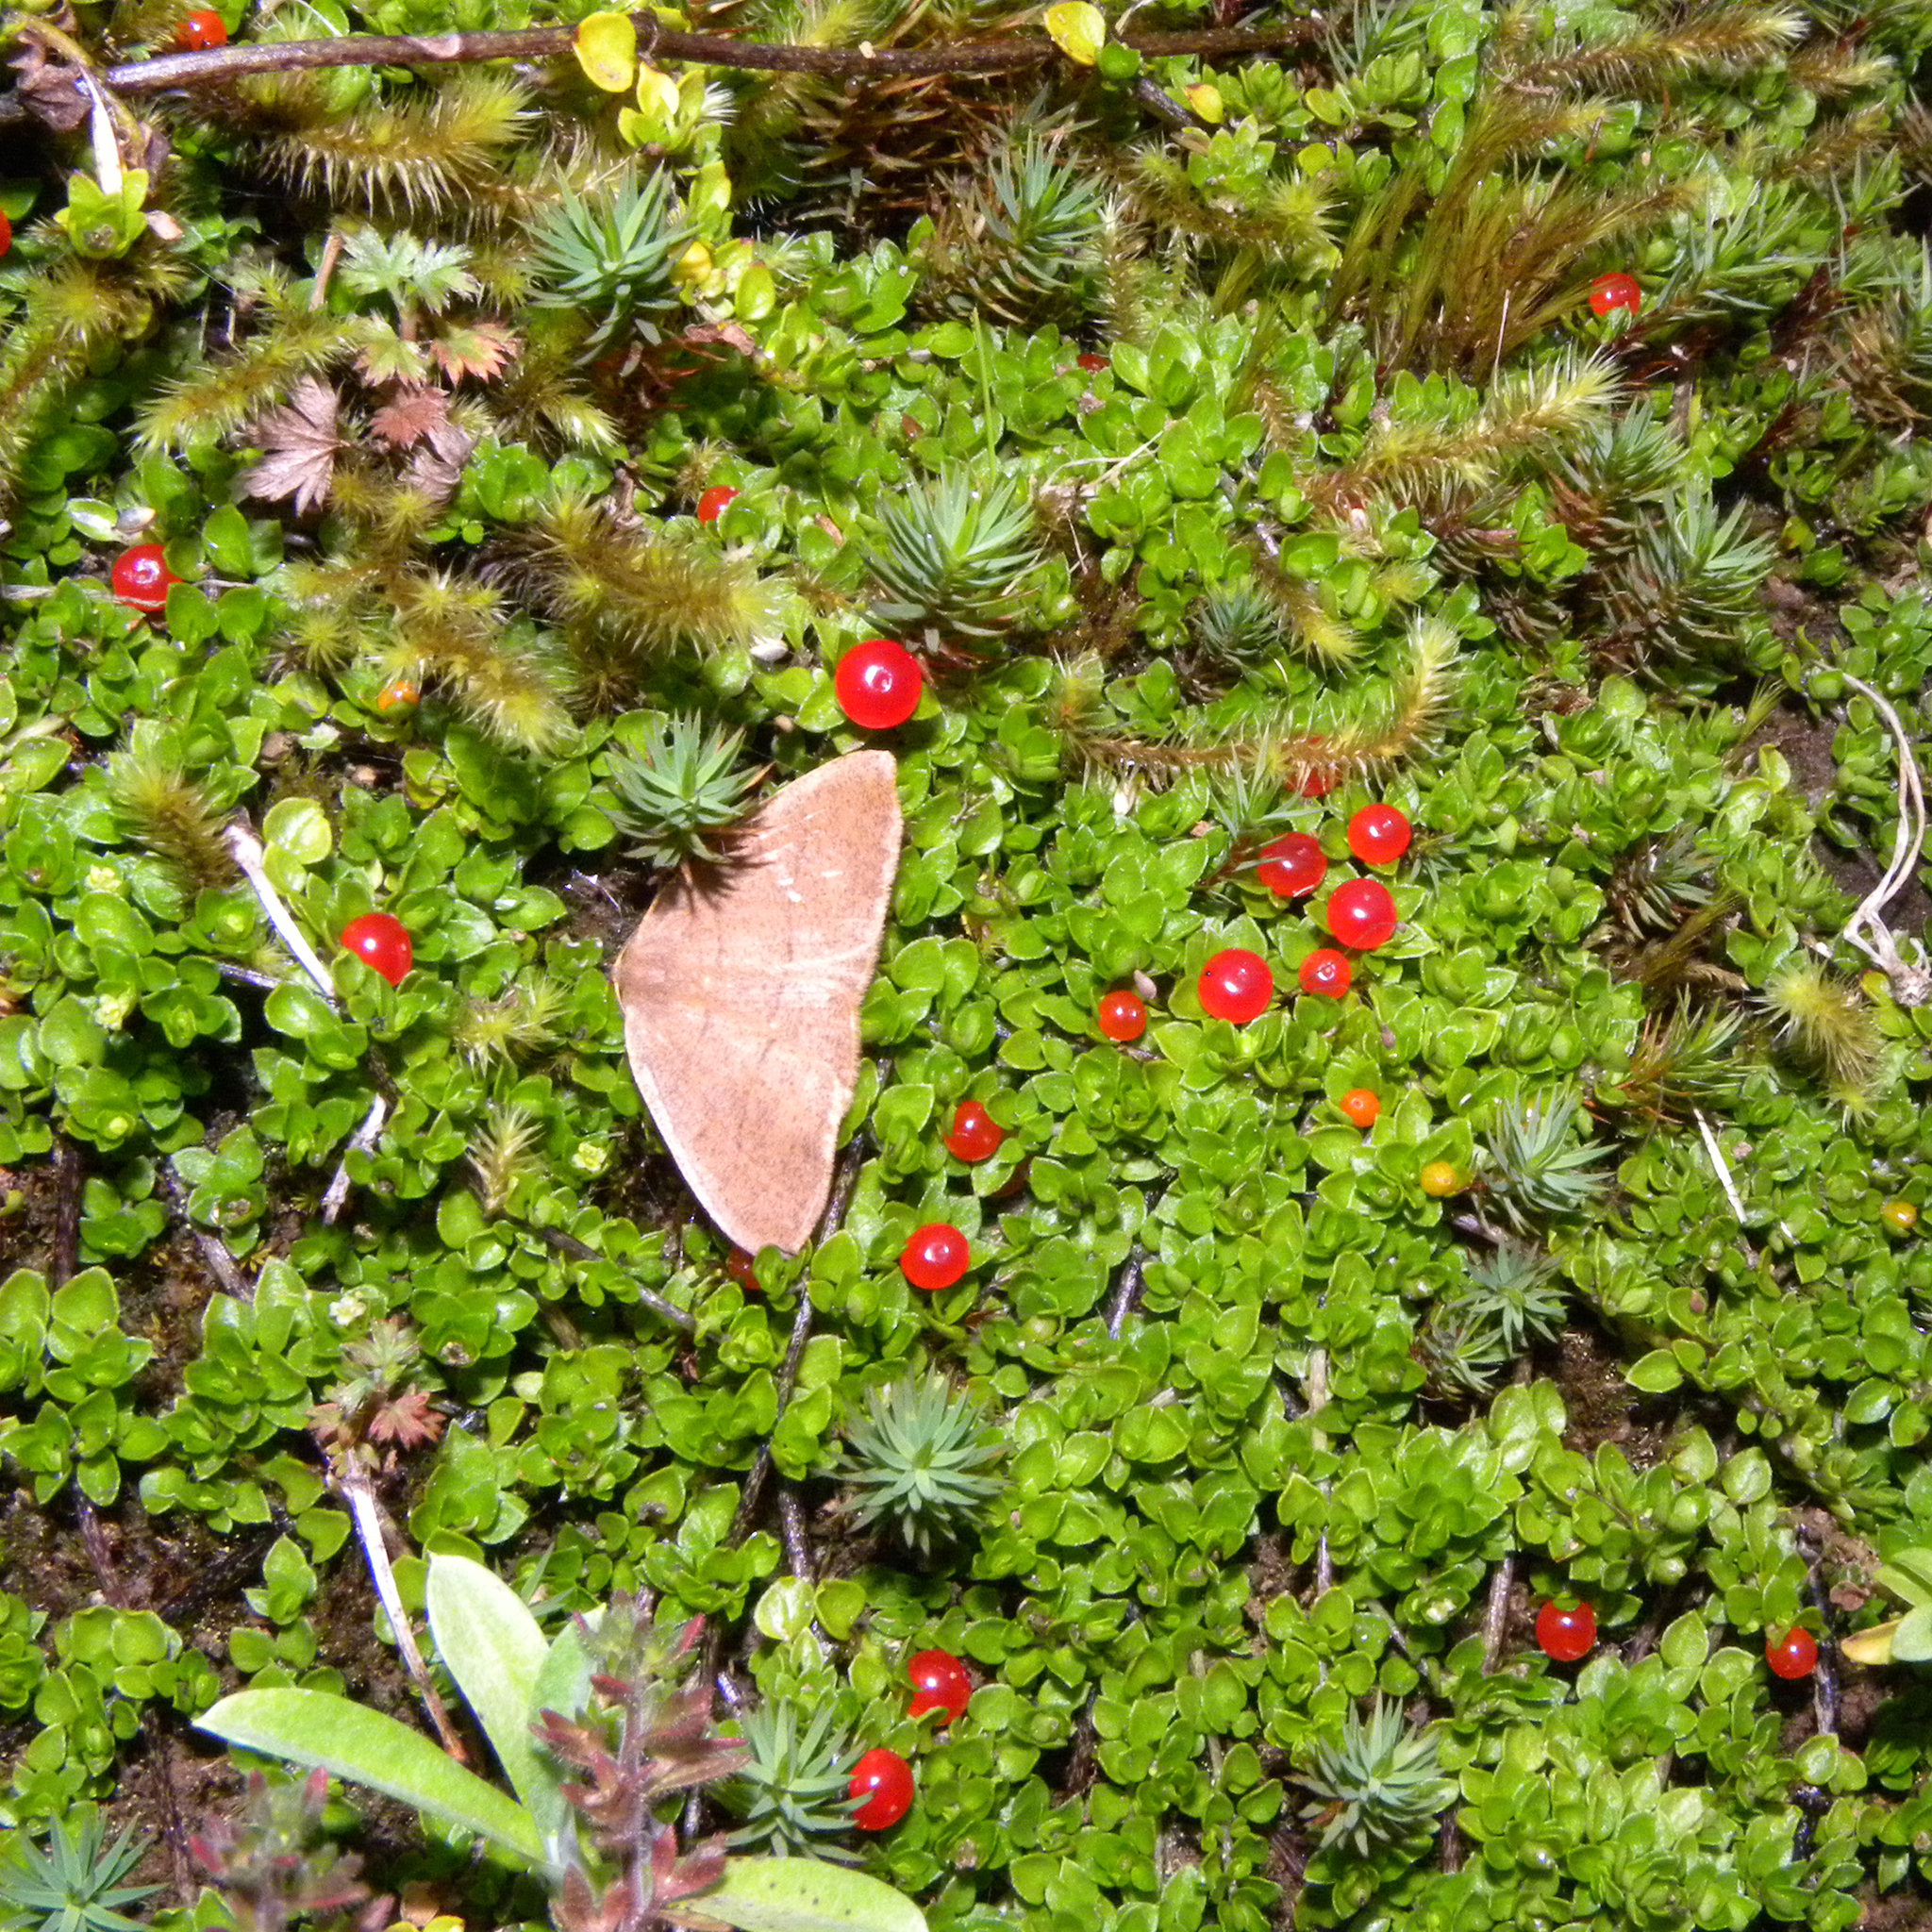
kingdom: Plantae
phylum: Tracheophyta
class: Magnoliopsida
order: Gentianales
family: Rubiaceae
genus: Nertera
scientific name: Nertera granadensis
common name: Beadplant
